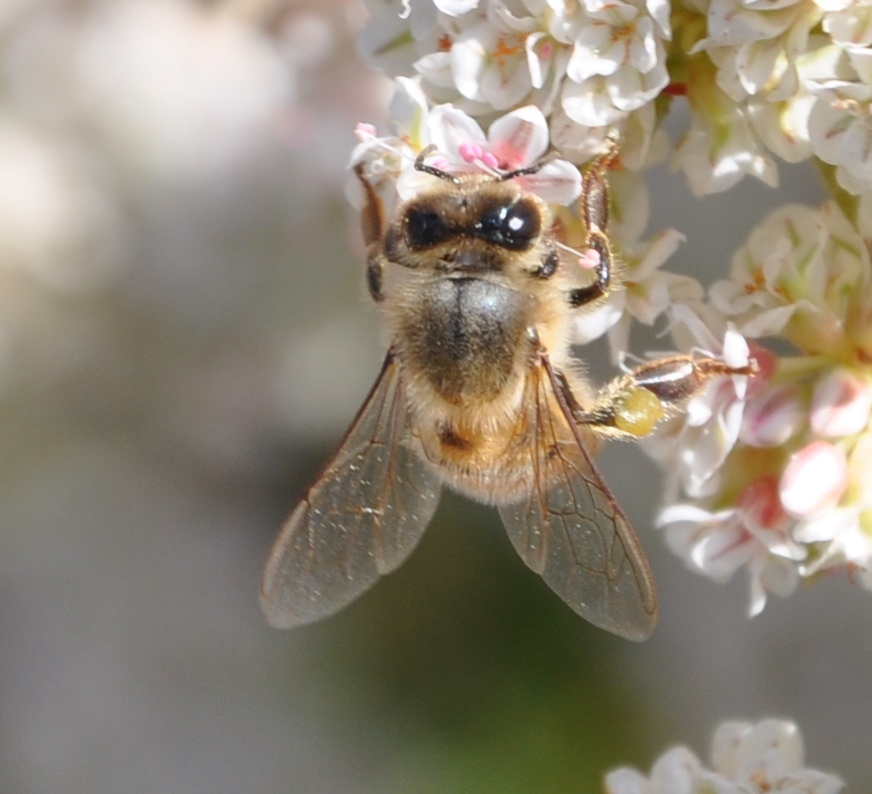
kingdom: Animalia
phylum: Arthropoda
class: Insecta
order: Hymenoptera
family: Apidae
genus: Apis
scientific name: Apis mellifera
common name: Honey bee
